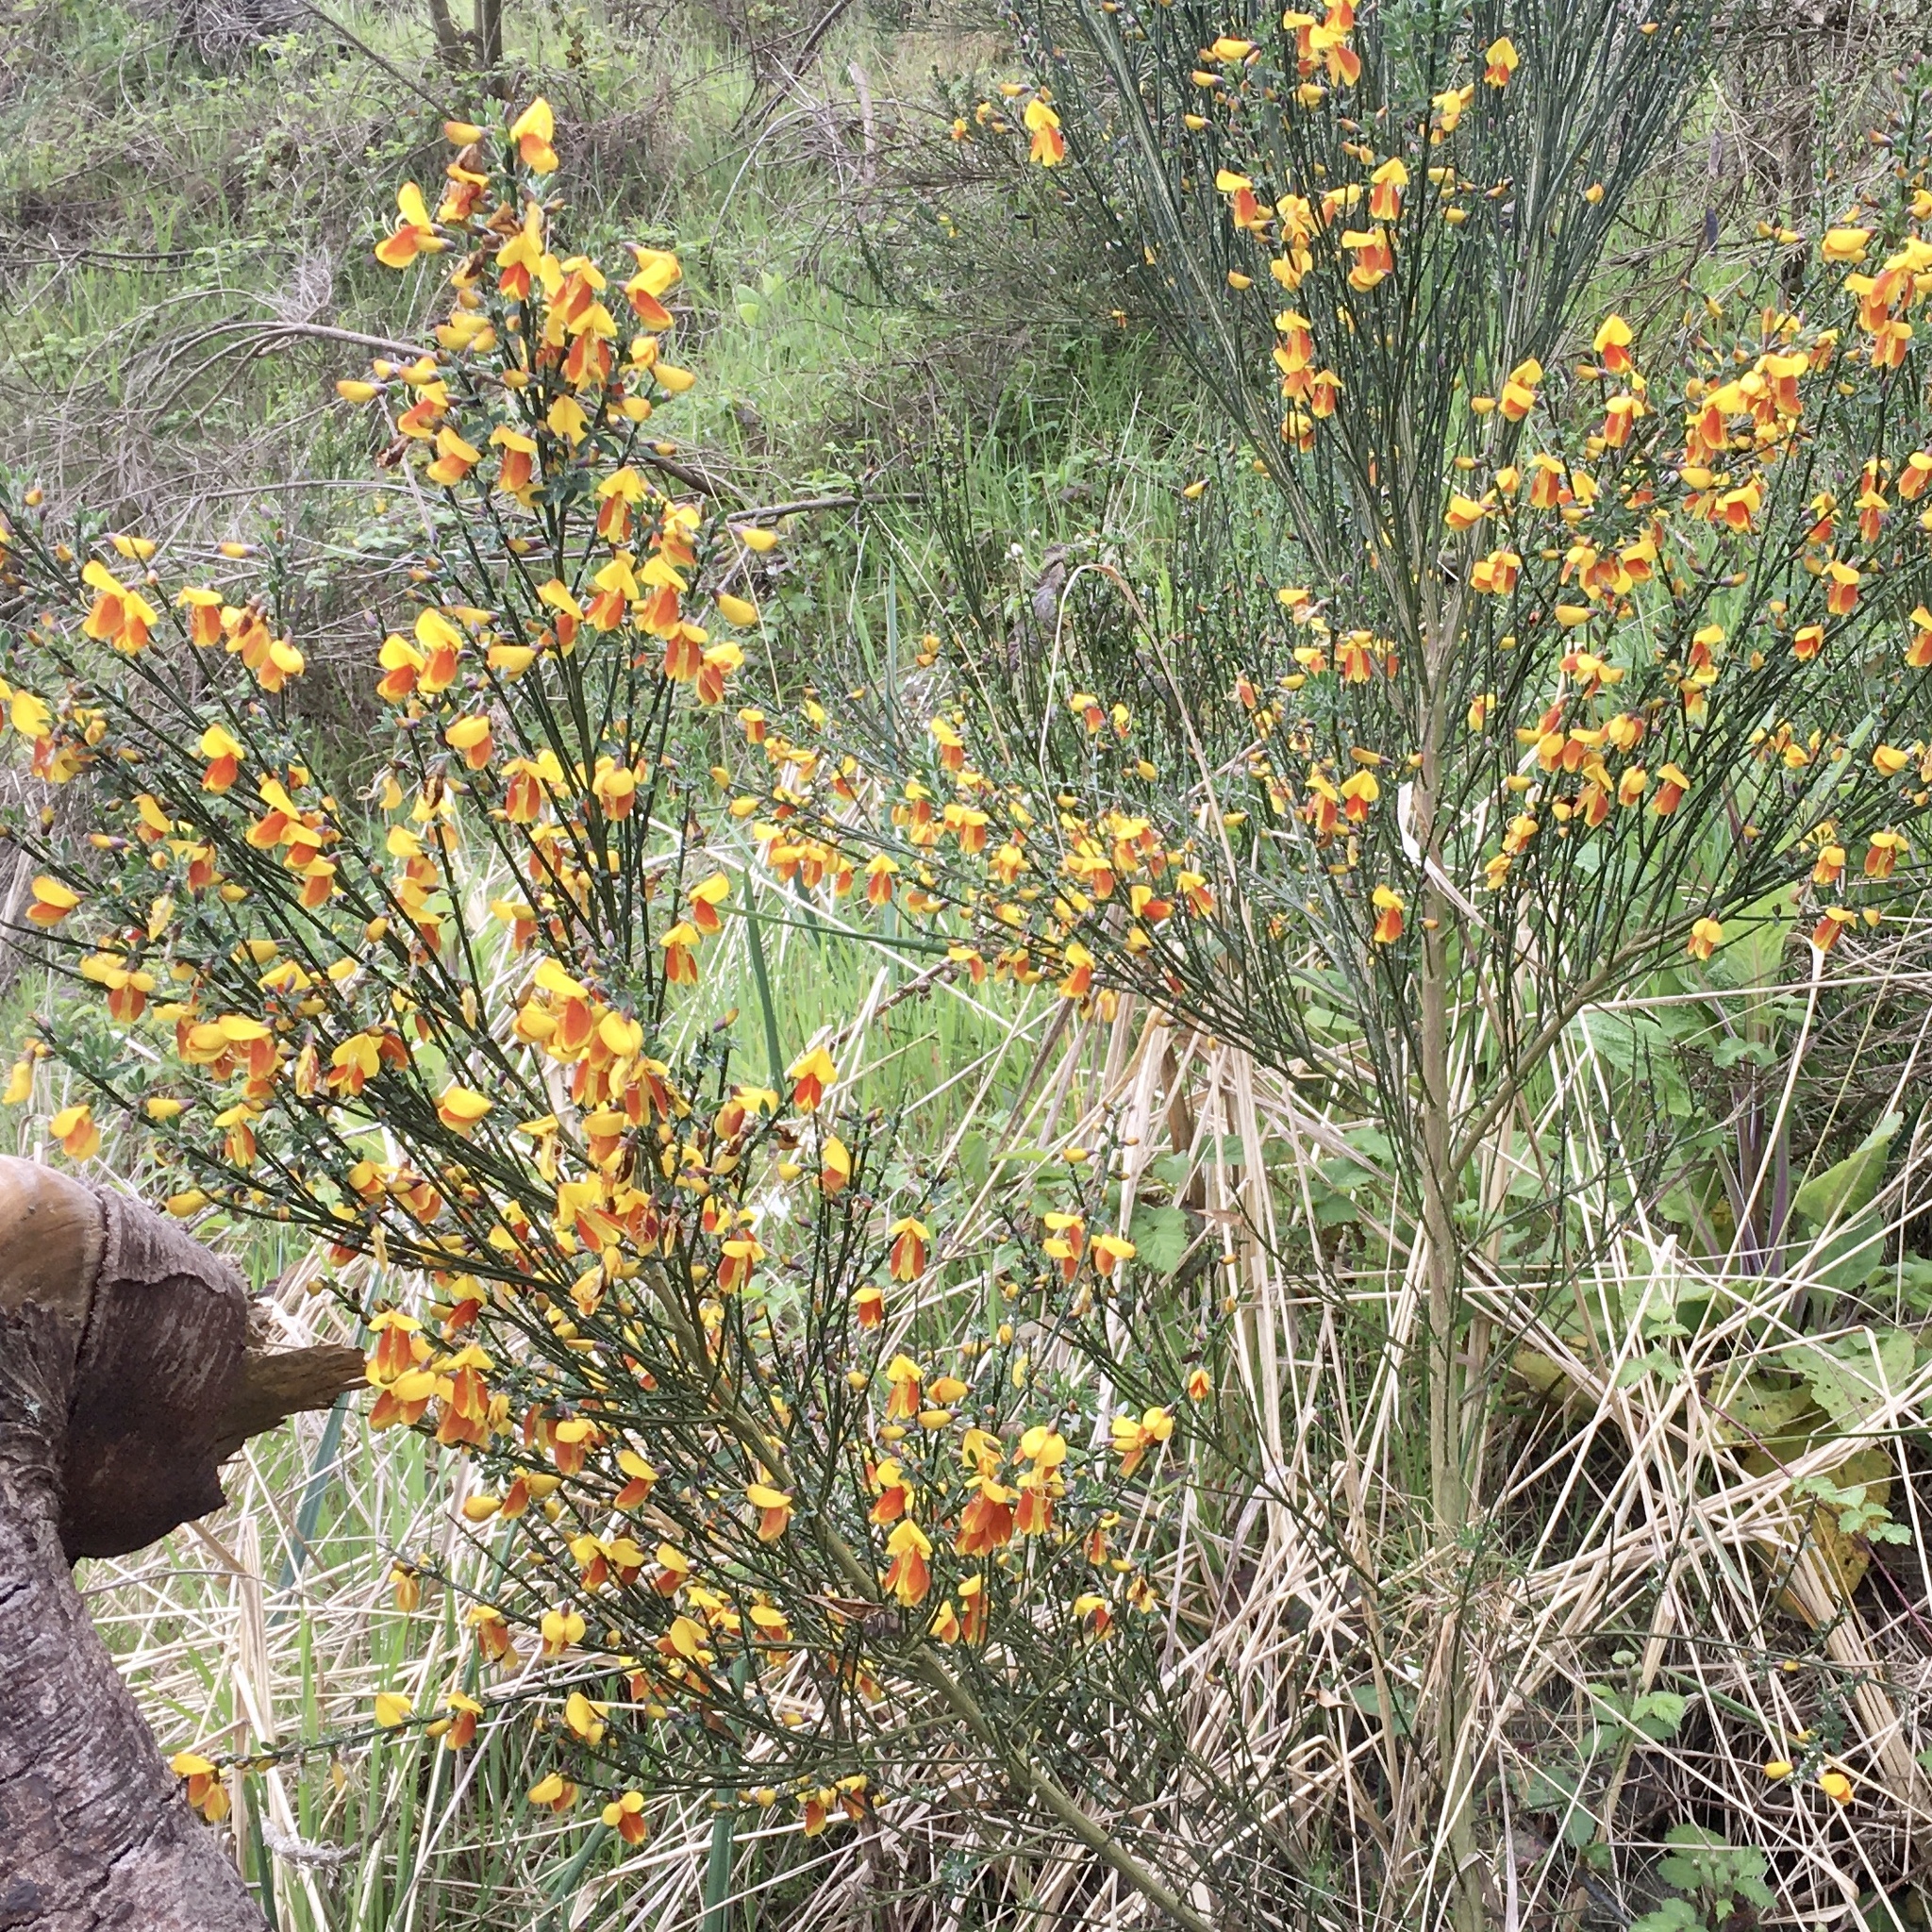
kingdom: Plantae
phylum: Tracheophyta
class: Magnoliopsida
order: Fabales
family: Fabaceae
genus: Cytisus
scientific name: Cytisus scoparius
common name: Scotch broom
